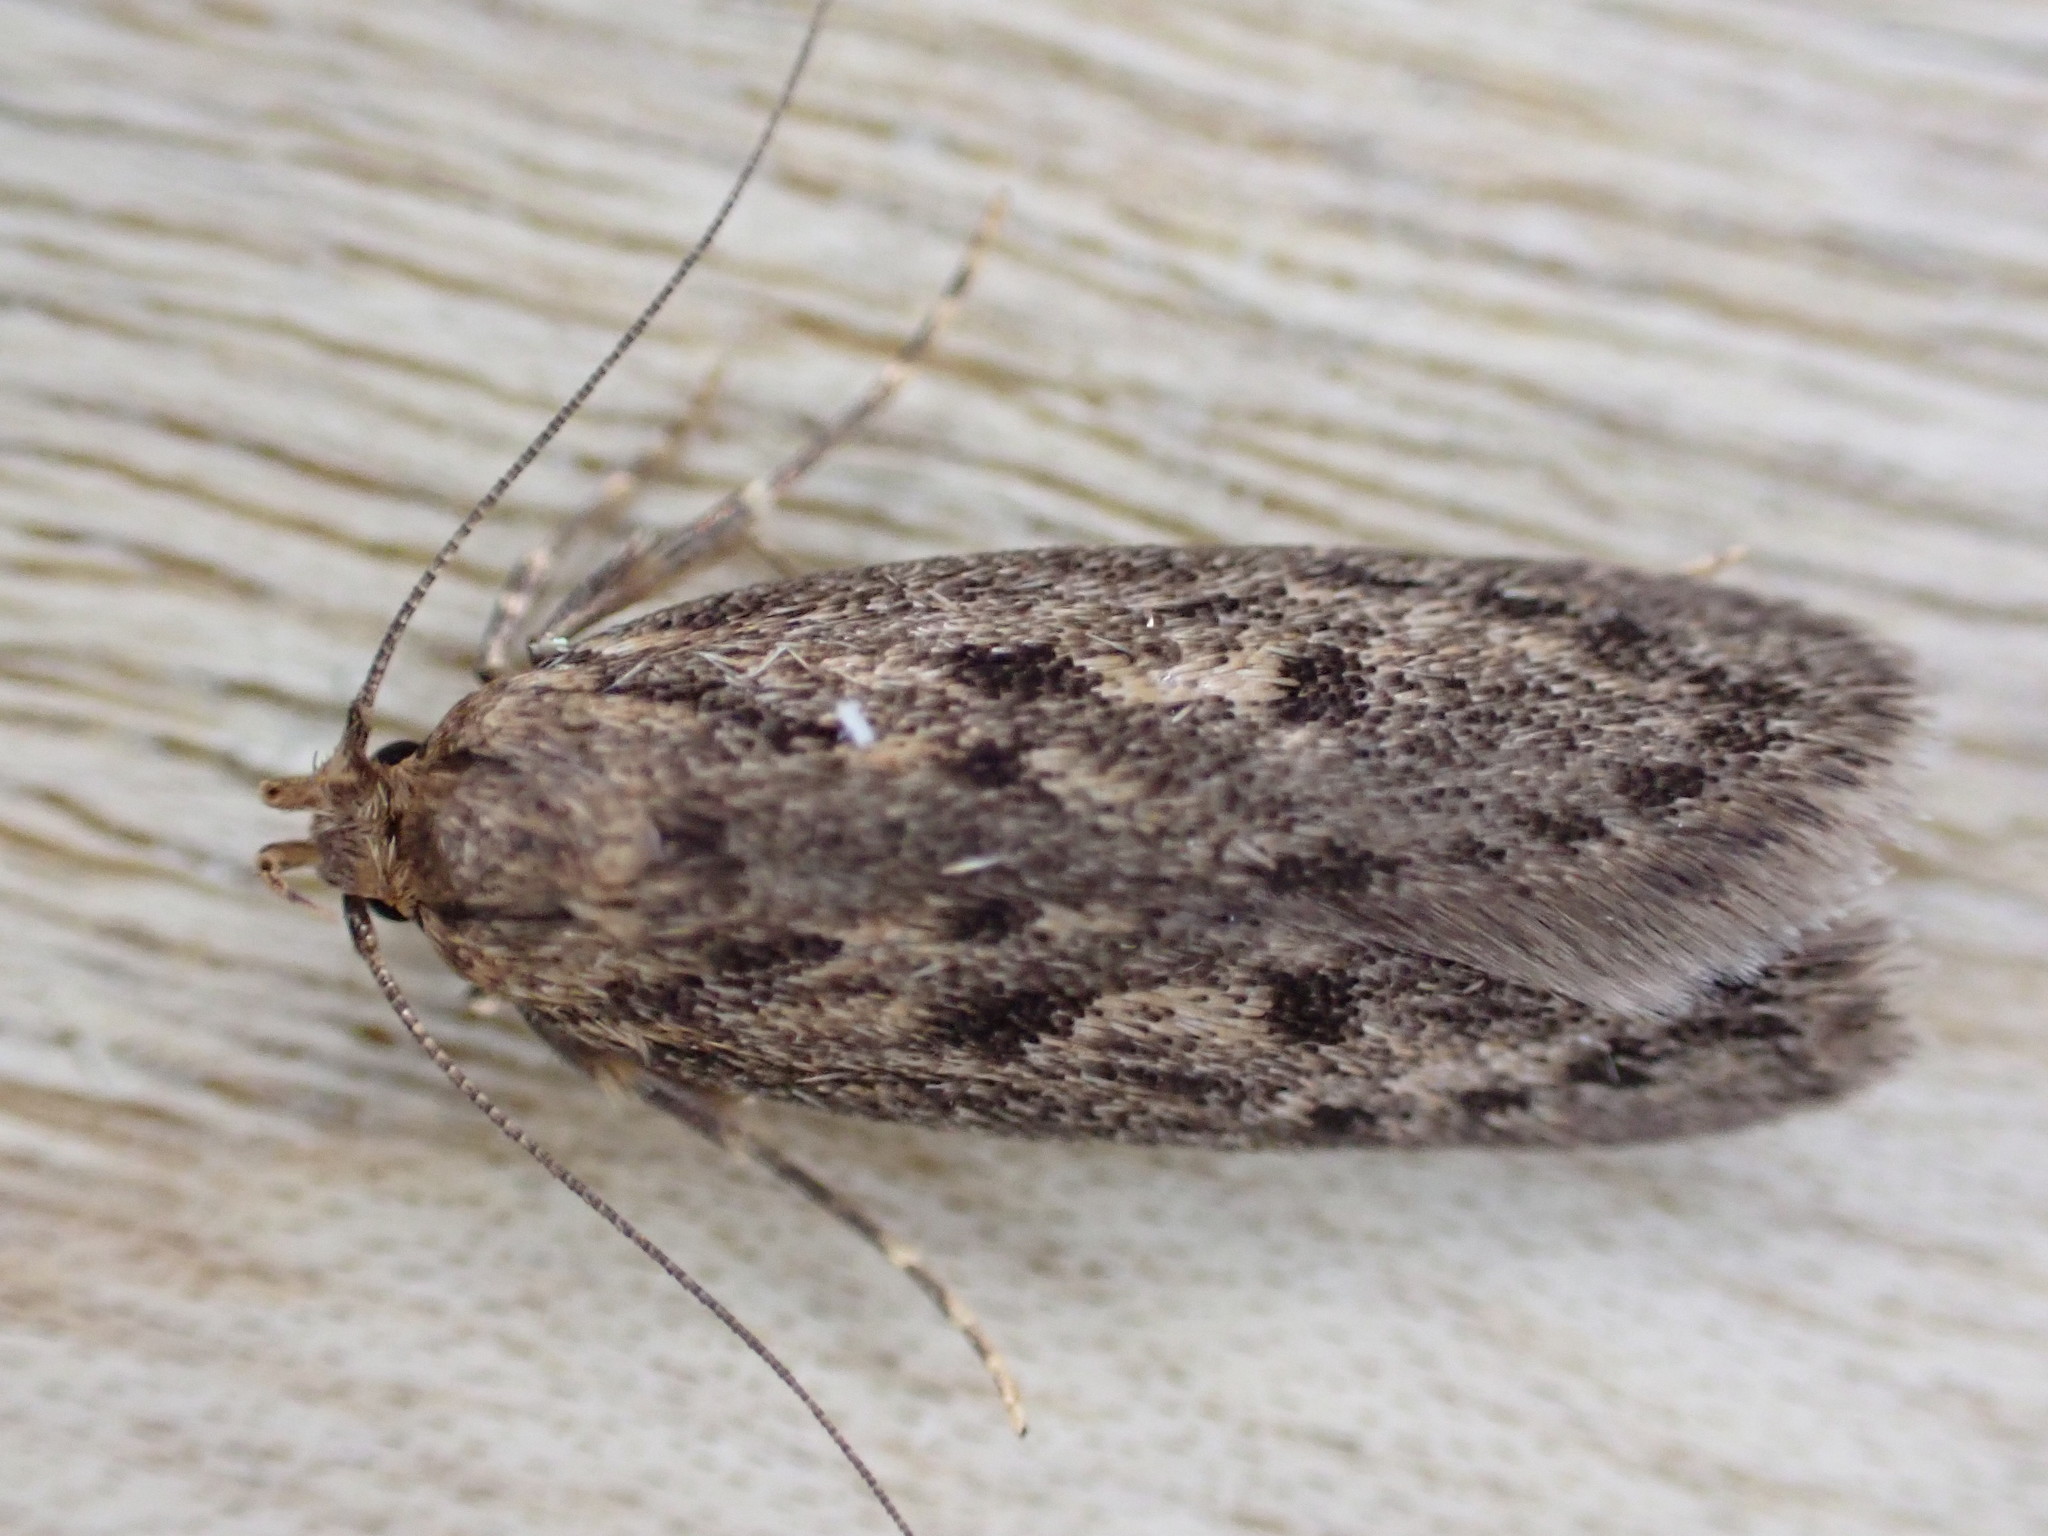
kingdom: Animalia
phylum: Arthropoda
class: Insecta
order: Lepidoptera
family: Oecophoridae
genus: Hofmannophila
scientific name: Hofmannophila pseudospretella
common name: Brown house moth
